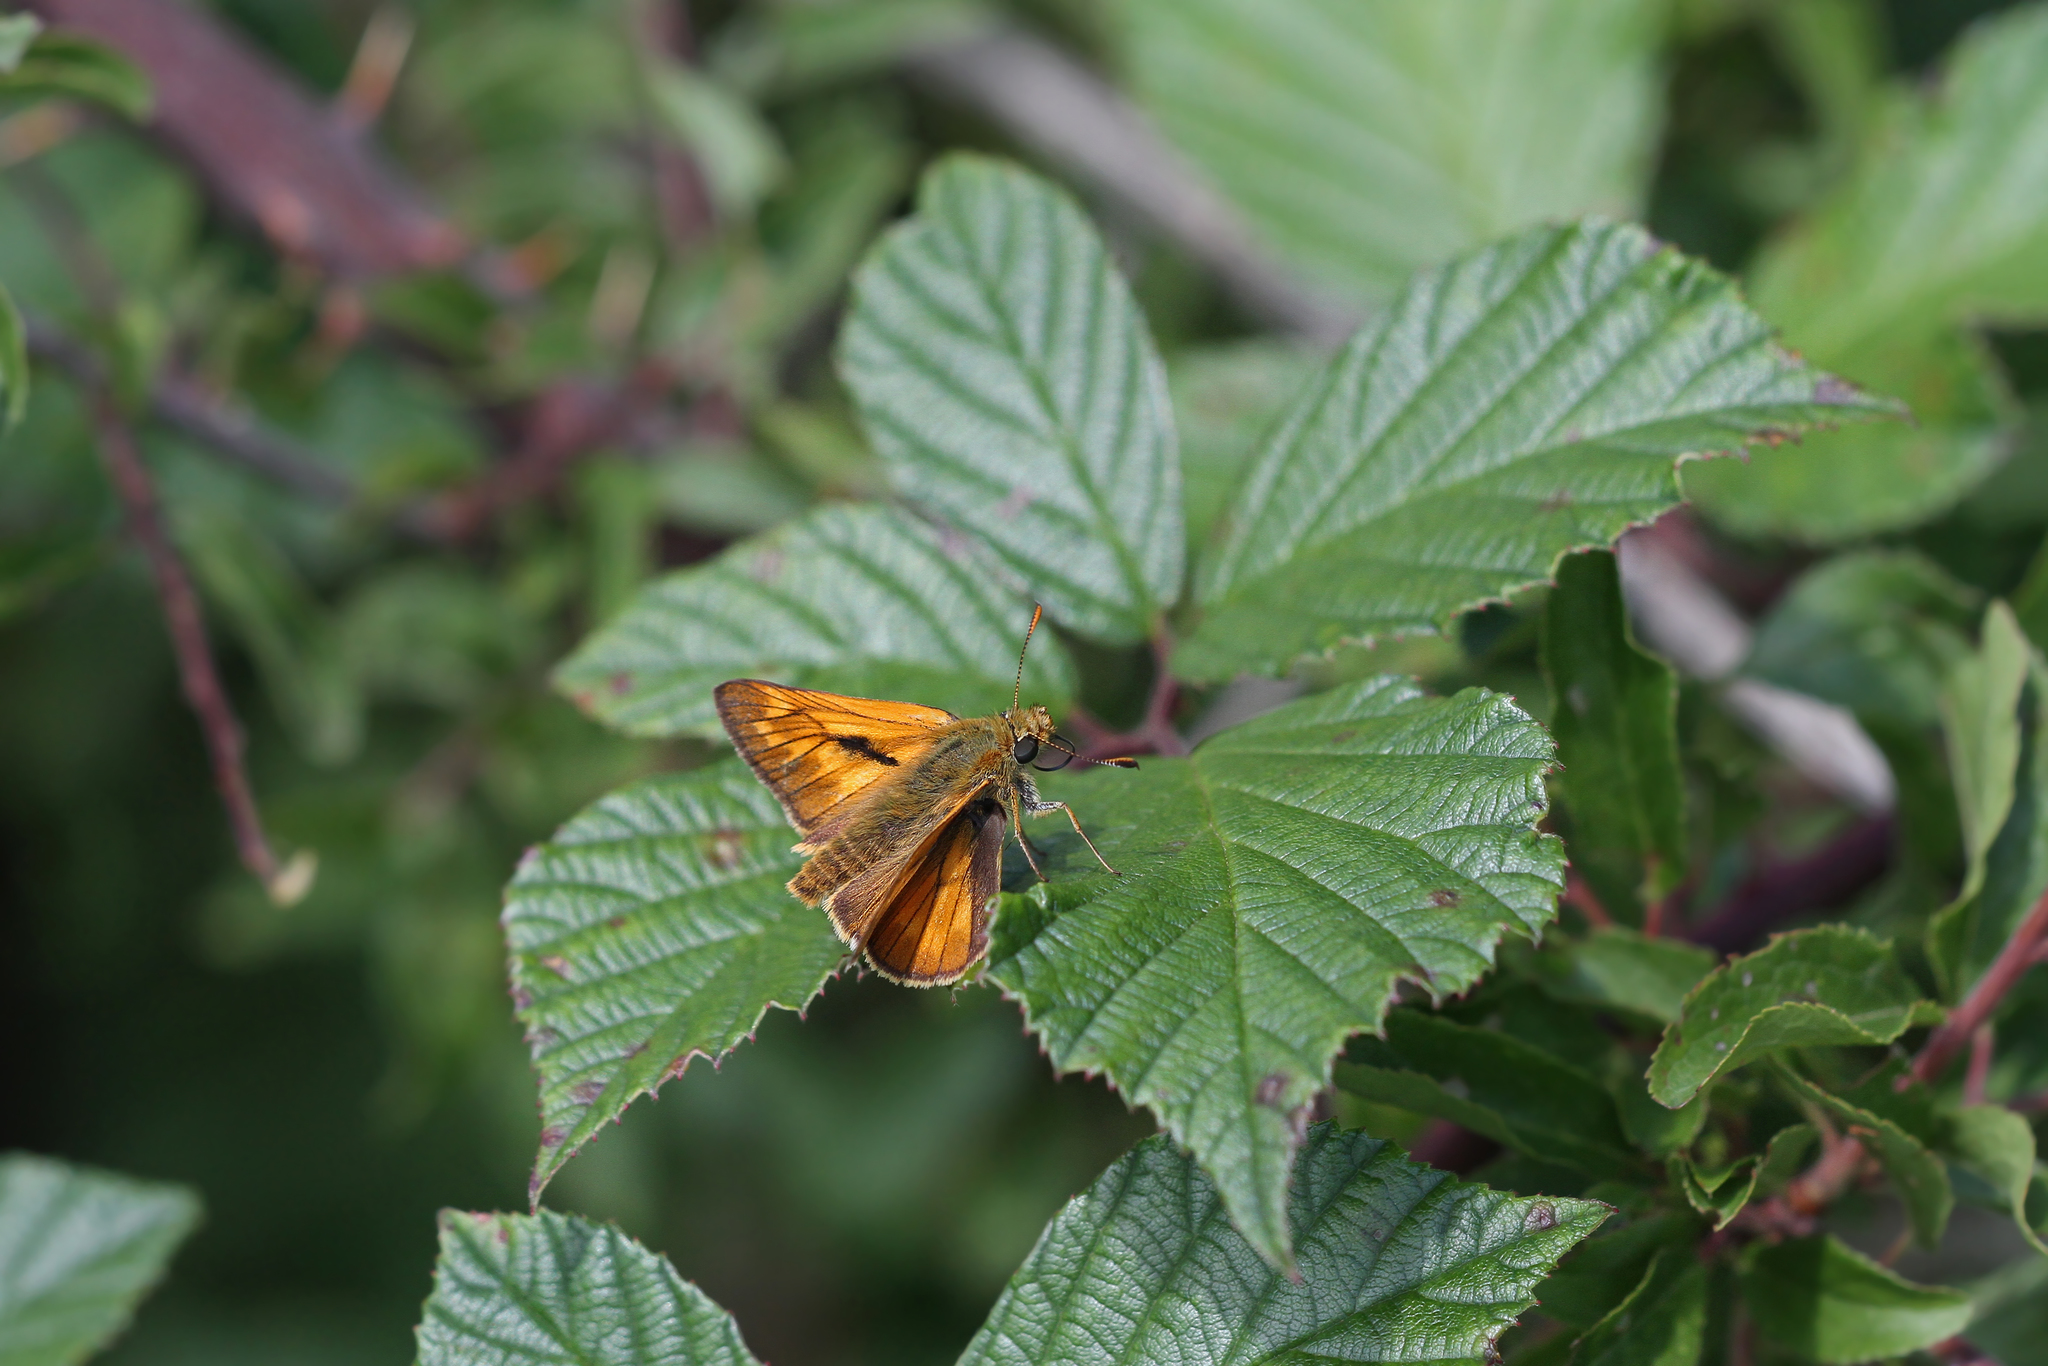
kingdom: Animalia
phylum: Arthropoda
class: Insecta
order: Lepidoptera
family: Hesperiidae
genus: Ochlodes
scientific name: Ochlodes venata
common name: Large skipper
